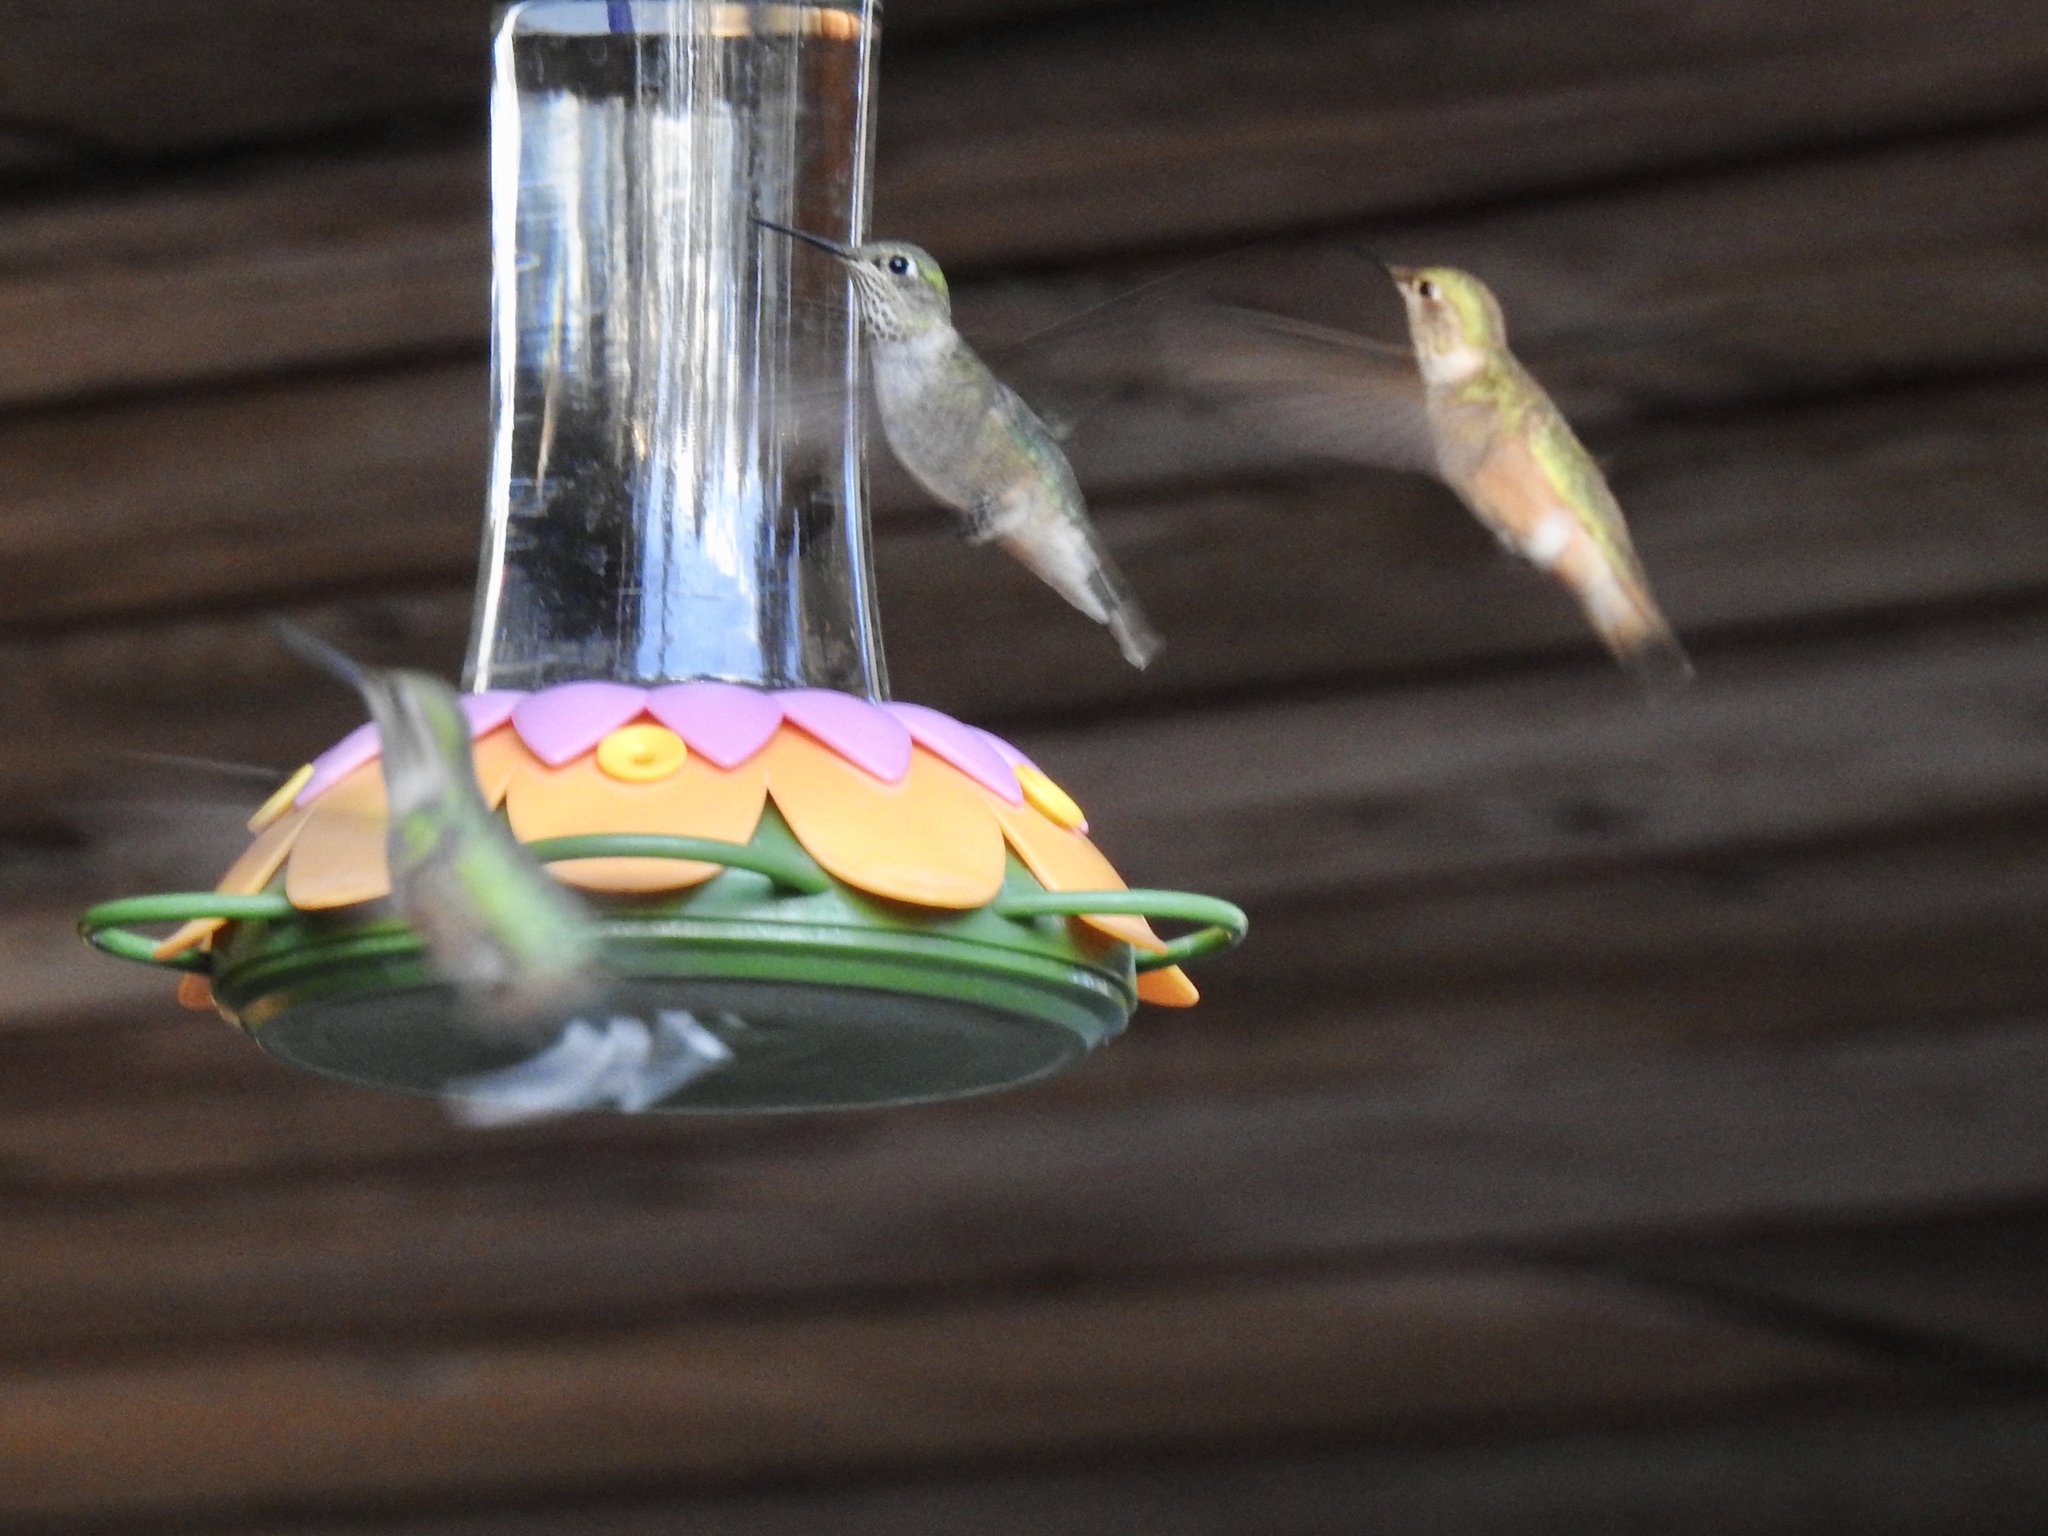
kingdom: Animalia
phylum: Chordata
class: Aves
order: Apodiformes
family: Trochilidae
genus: Selasphorus
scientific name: Selasphorus platycercus
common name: Broad-tailed hummingbird
